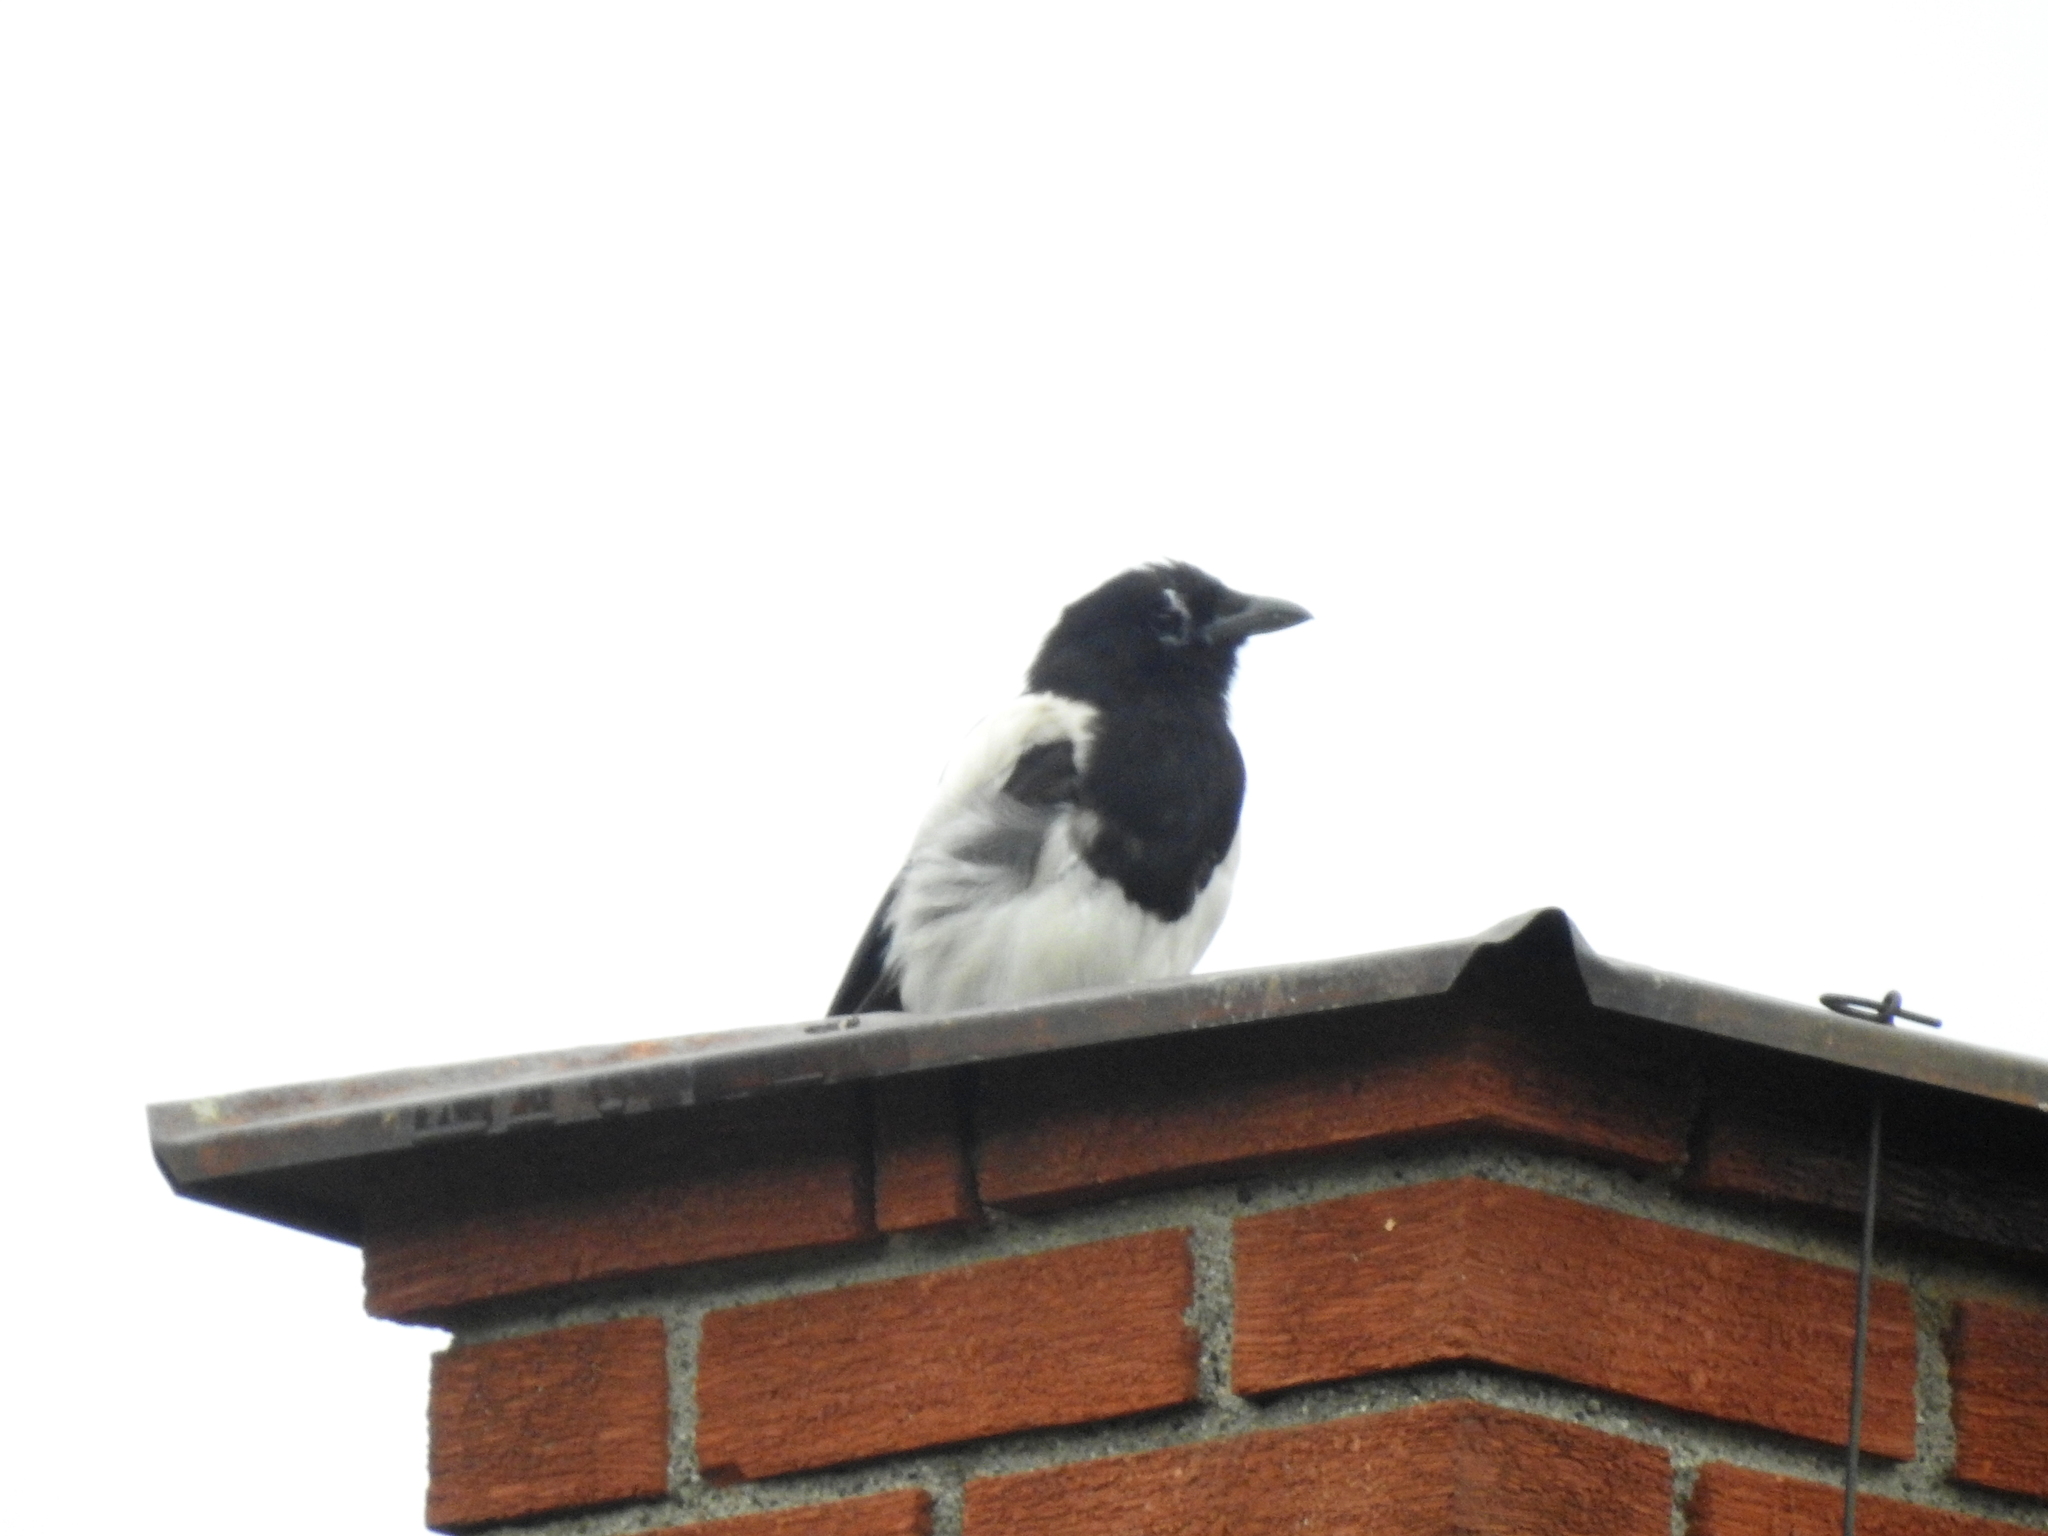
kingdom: Animalia
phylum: Chordata
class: Aves
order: Passeriformes
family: Corvidae
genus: Pica
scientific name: Pica pica
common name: Eurasian magpie
